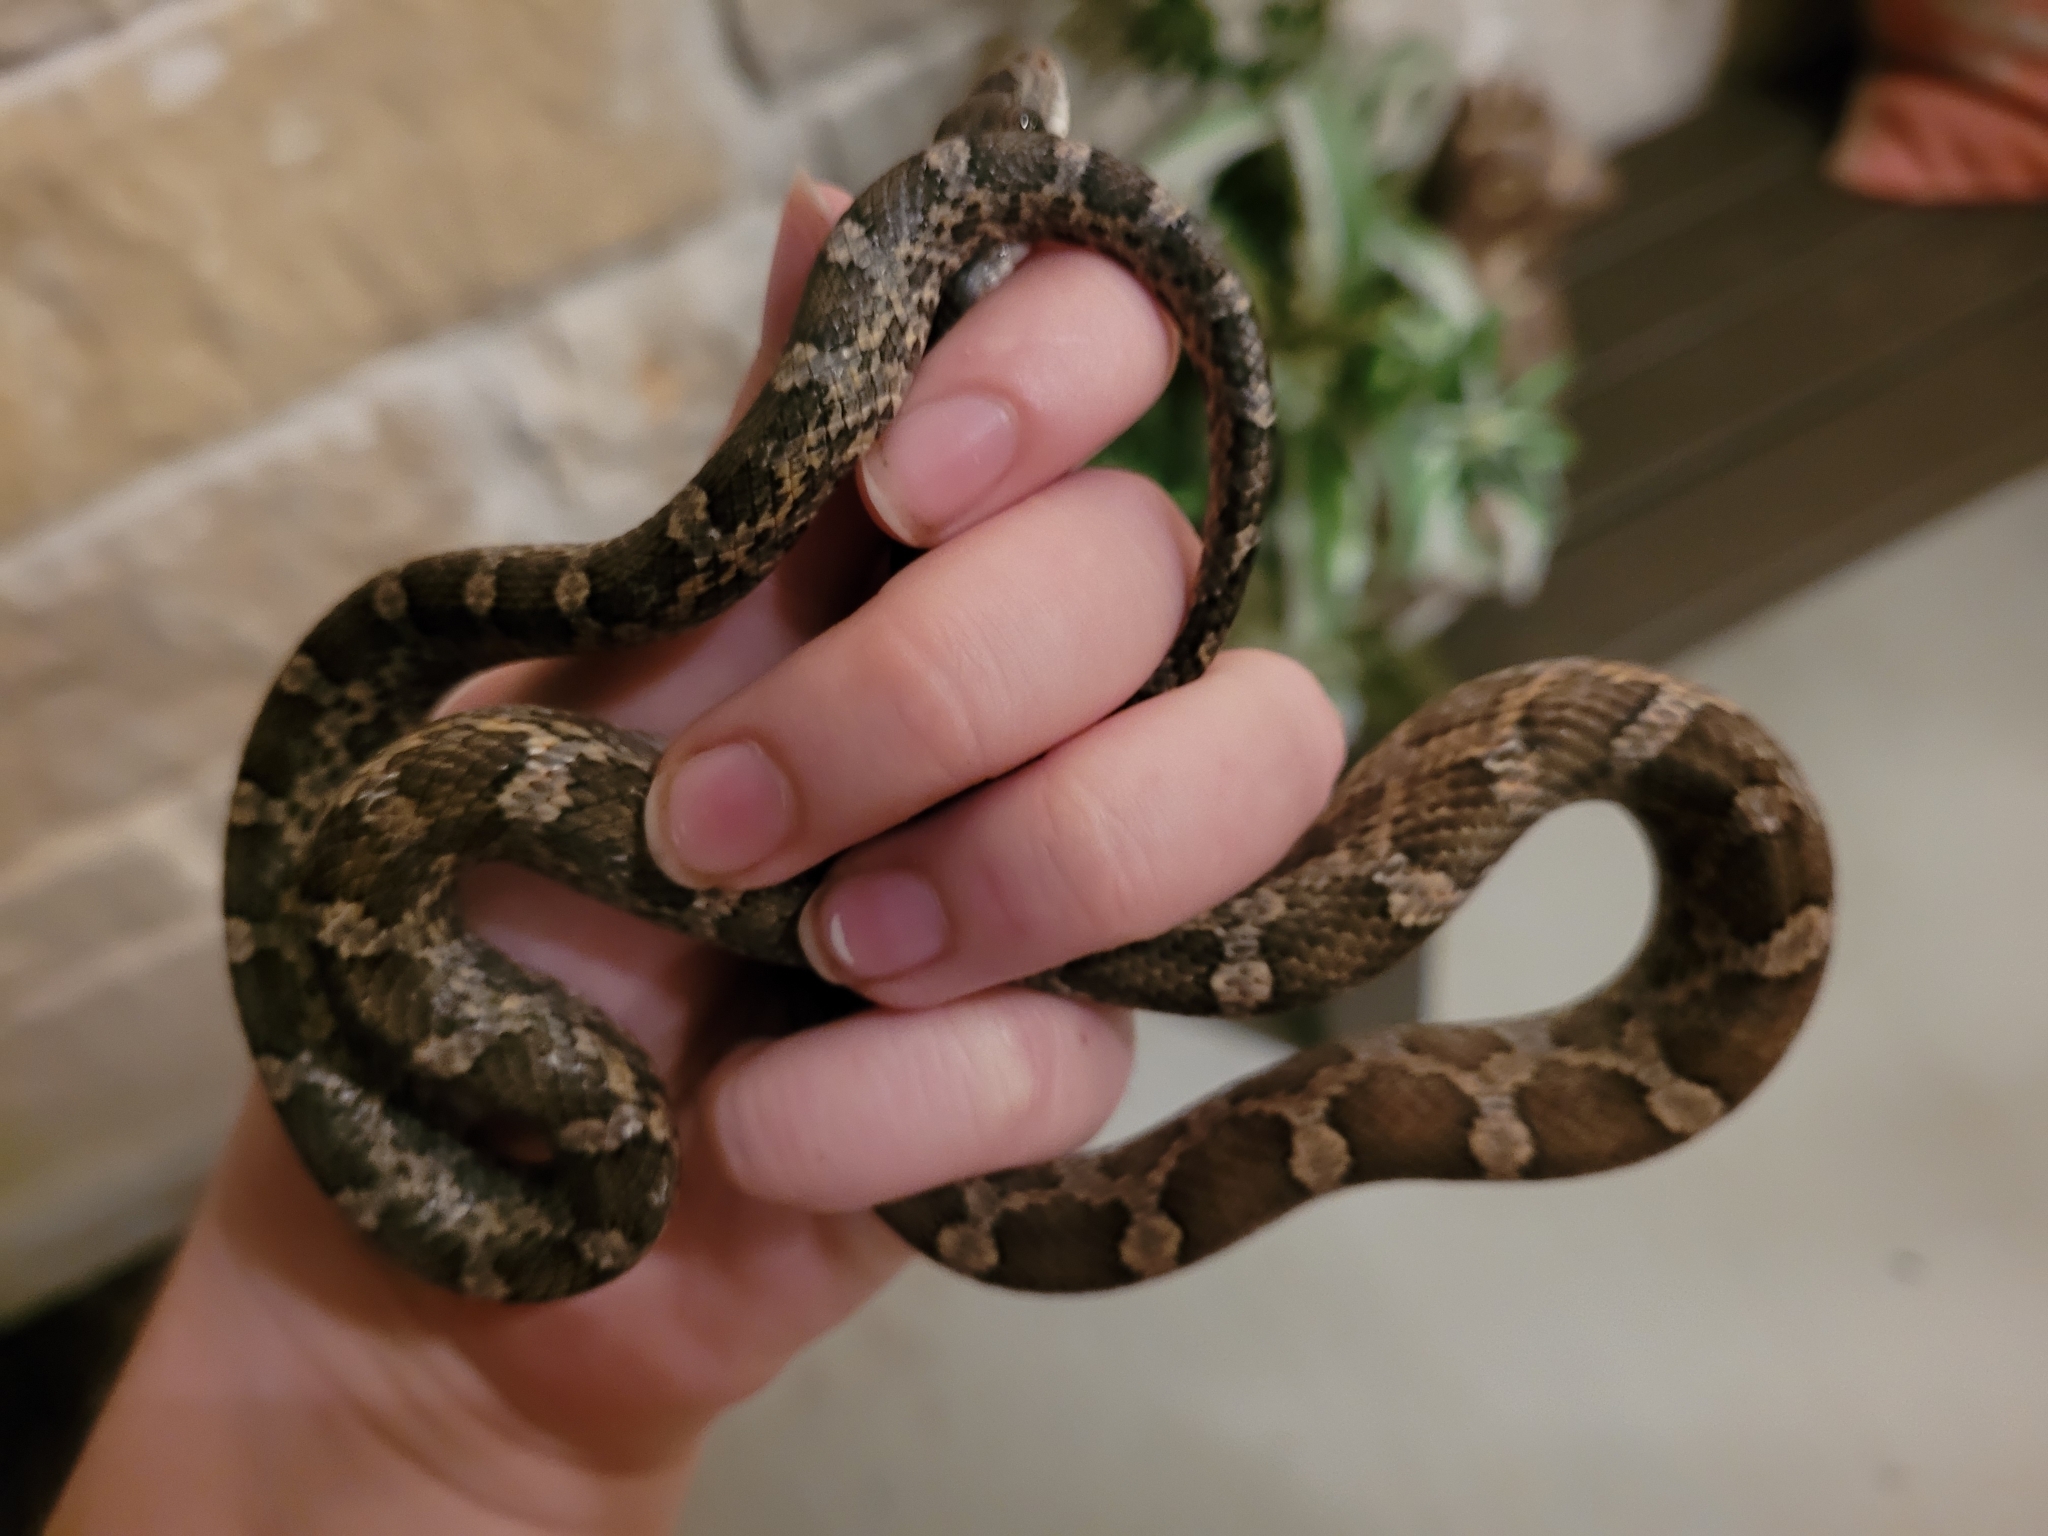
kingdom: Animalia
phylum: Chordata
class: Squamata
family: Colubridae
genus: Pantherophis
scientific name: Pantherophis obsoletus
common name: Black rat snake
